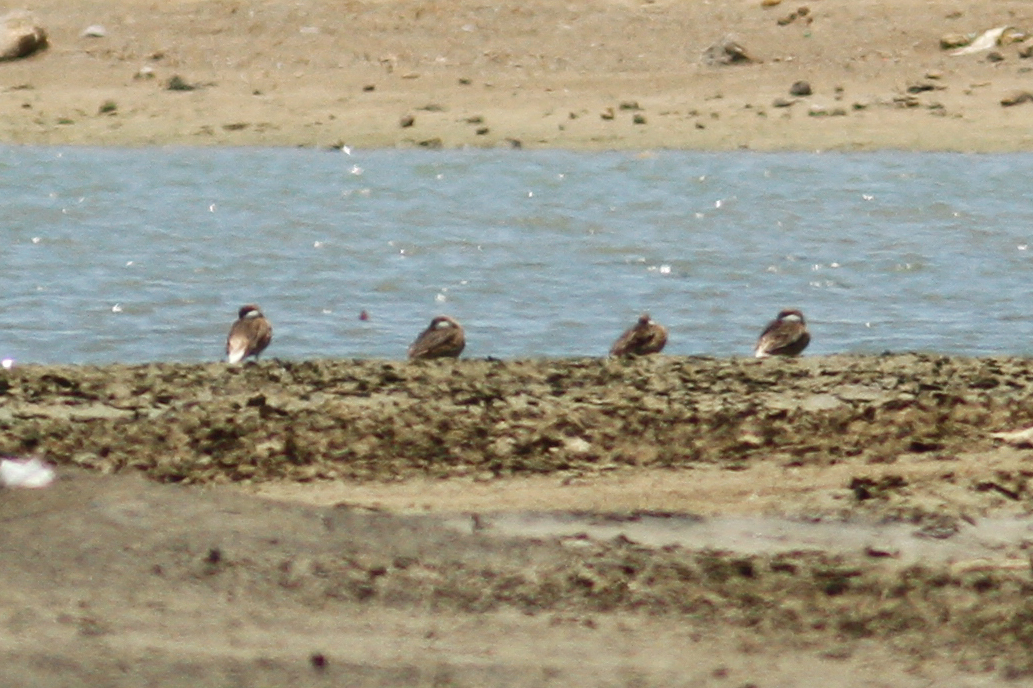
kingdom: Animalia
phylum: Chordata
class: Aves
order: Anseriformes
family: Anatidae
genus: Anas
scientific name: Anas bahamensis
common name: White-cheeked pintail
